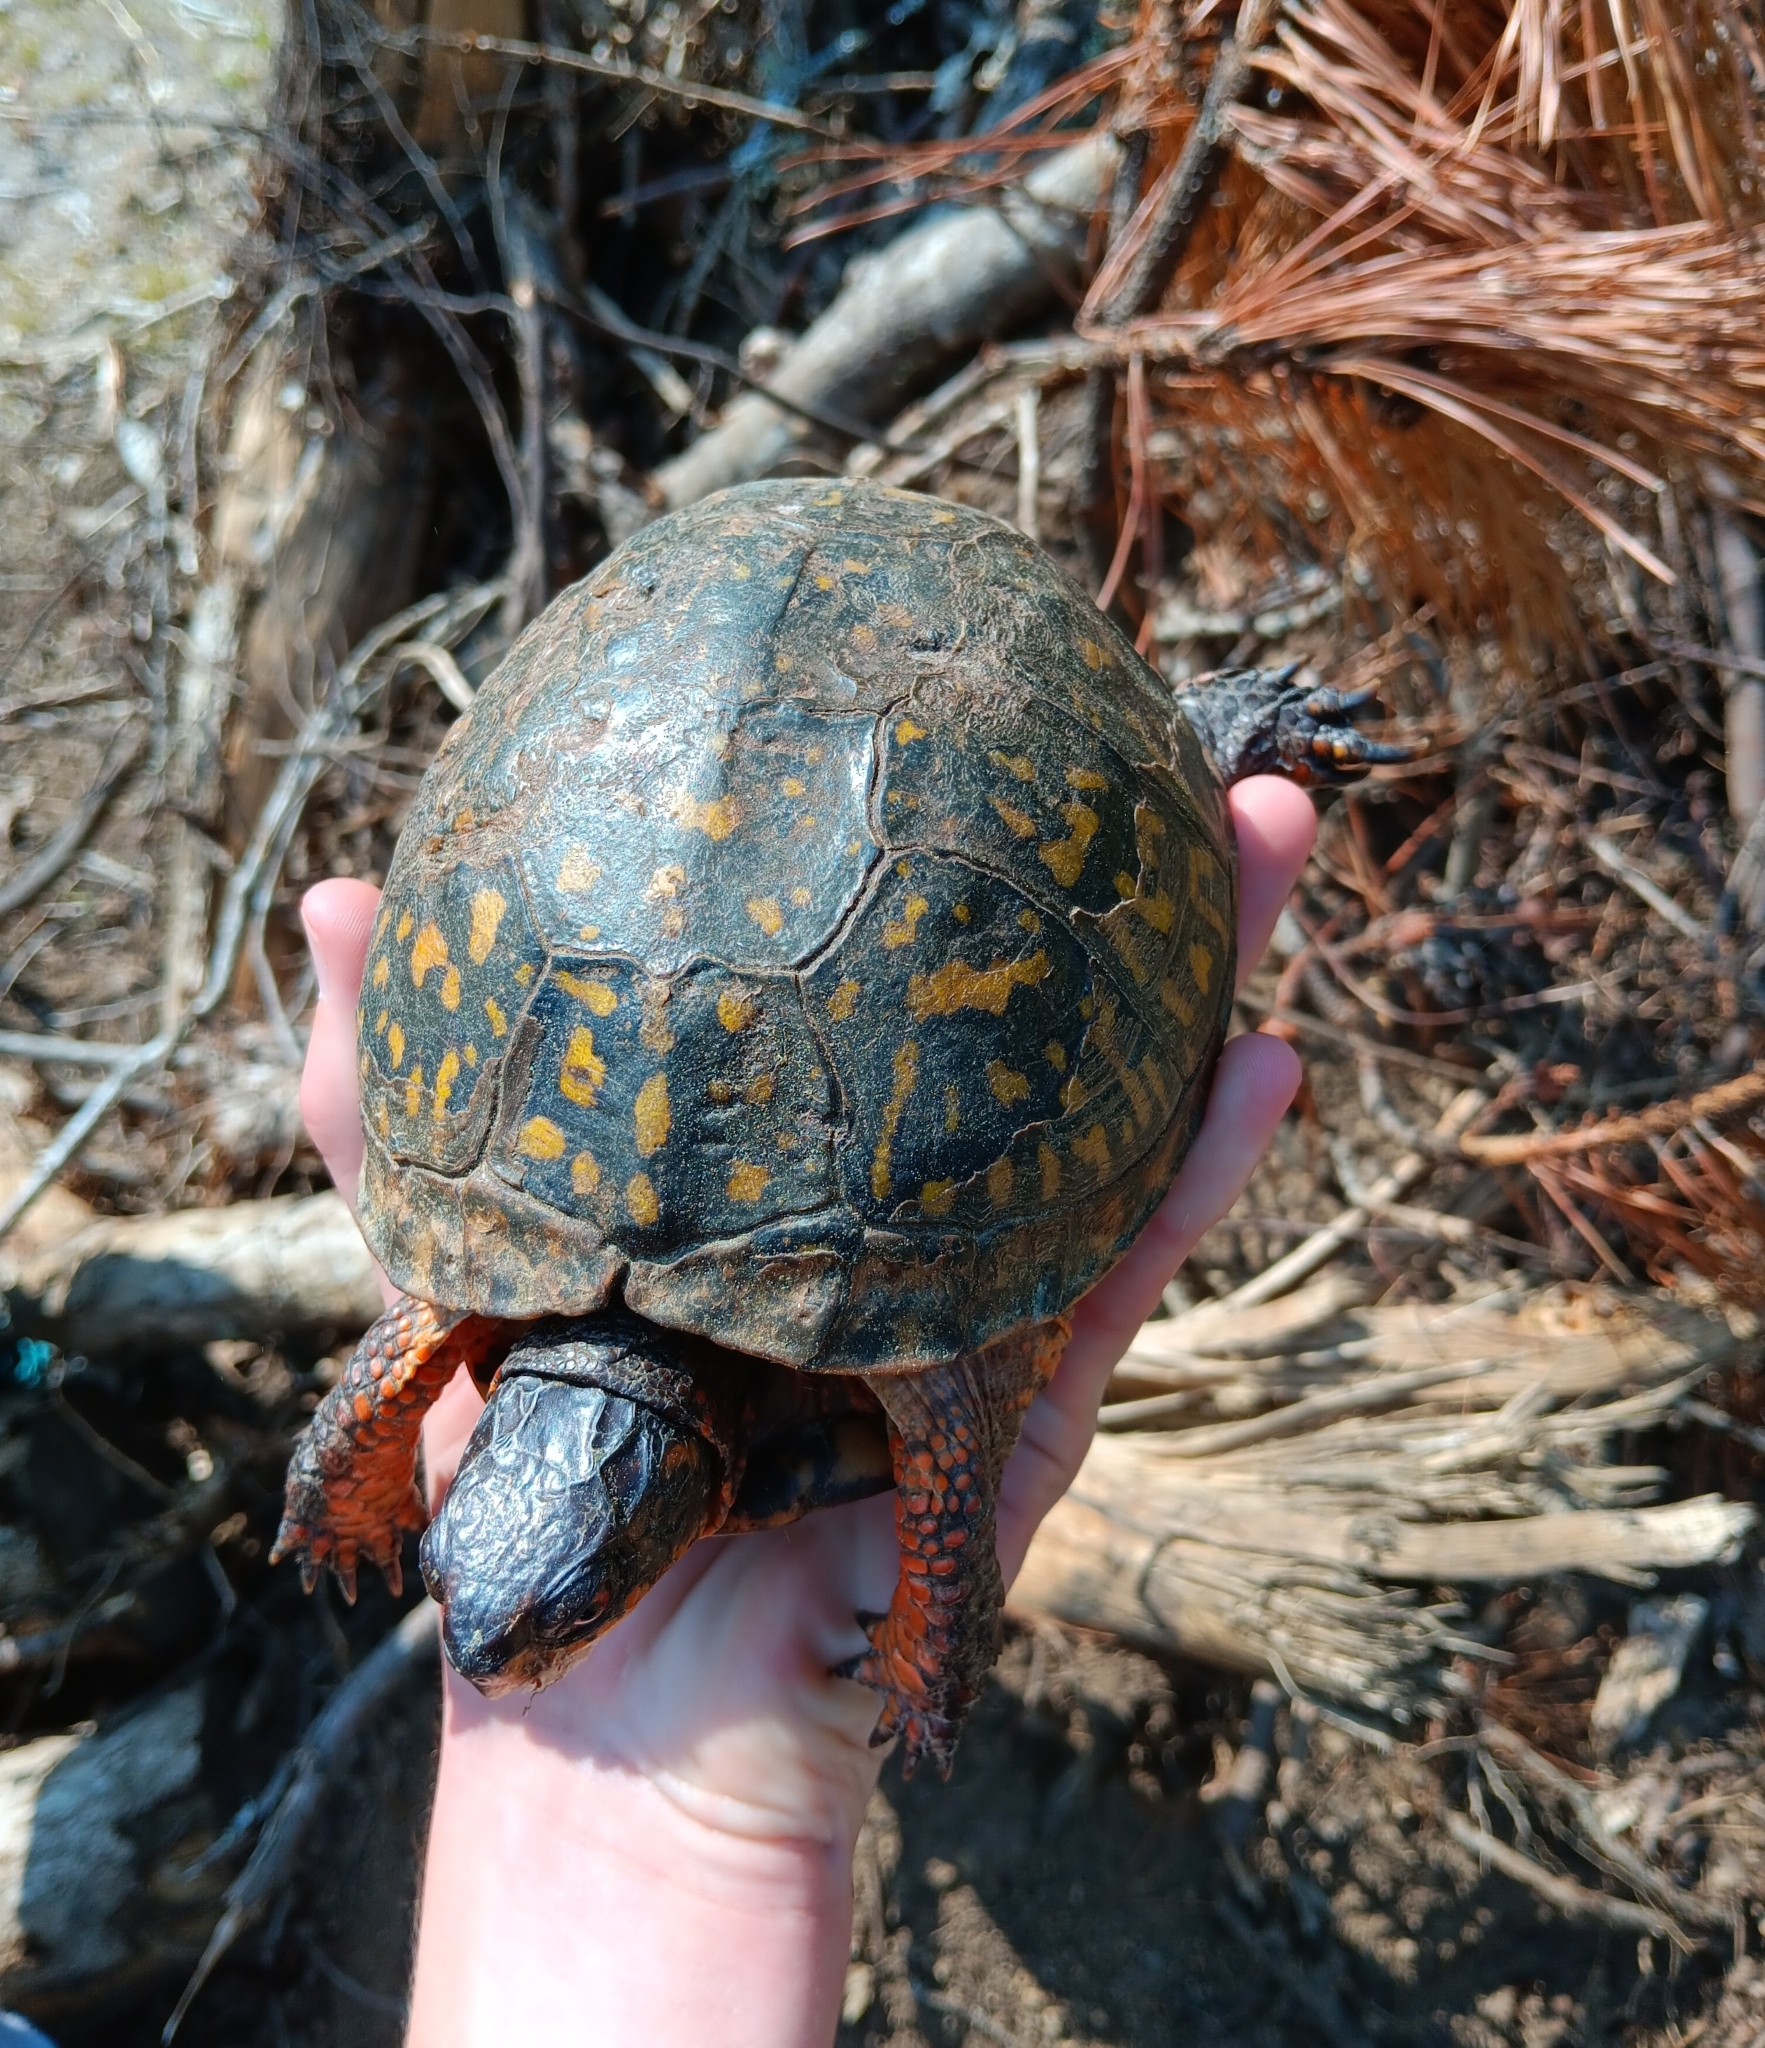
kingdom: Animalia
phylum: Chordata
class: Testudines
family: Emydidae
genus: Terrapene
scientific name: Terrapene carolina
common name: Common box turtle
